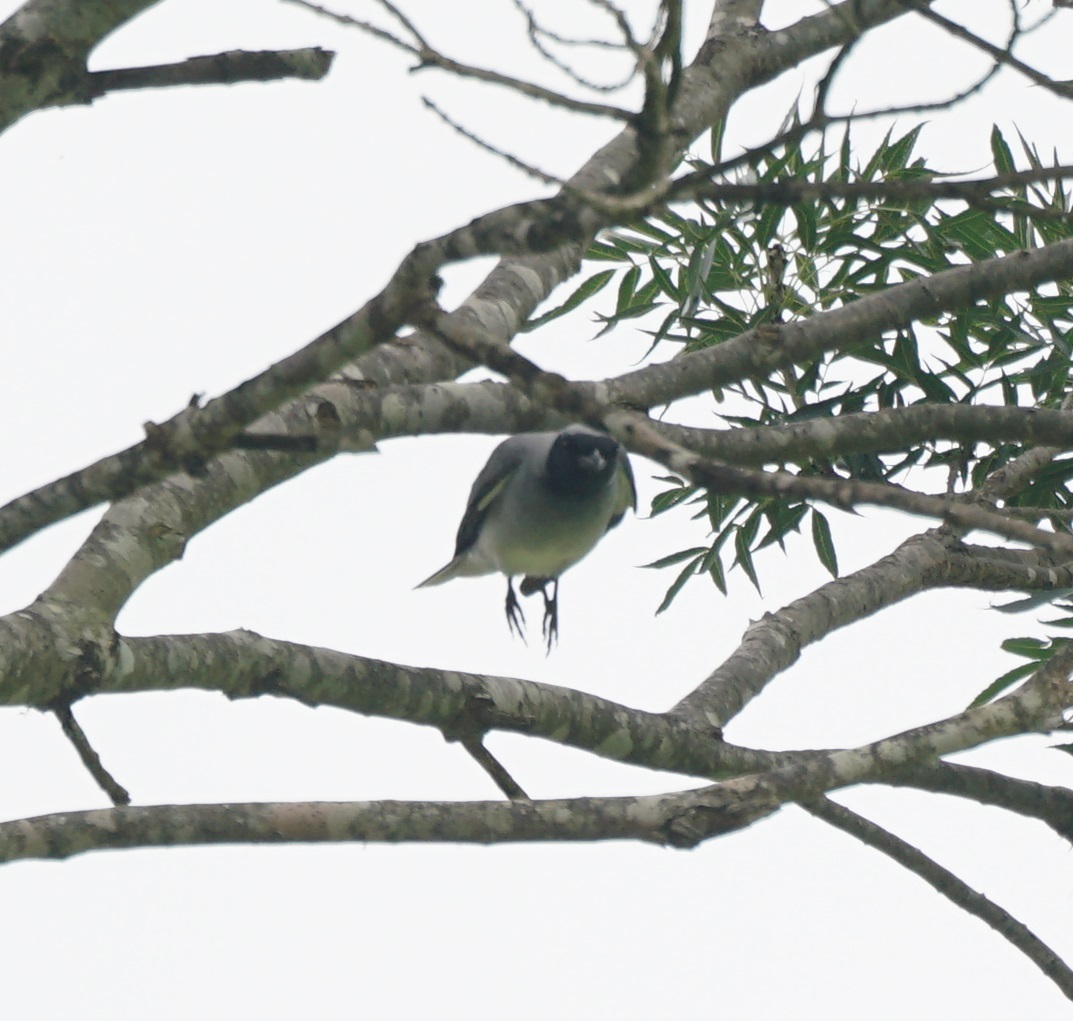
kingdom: Animalia
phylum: Chordata
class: Aves
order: Passeriformes
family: Campephagidae
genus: Coracina
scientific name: Coracina novaehollandiae
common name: Black-faced cuckooshrike
